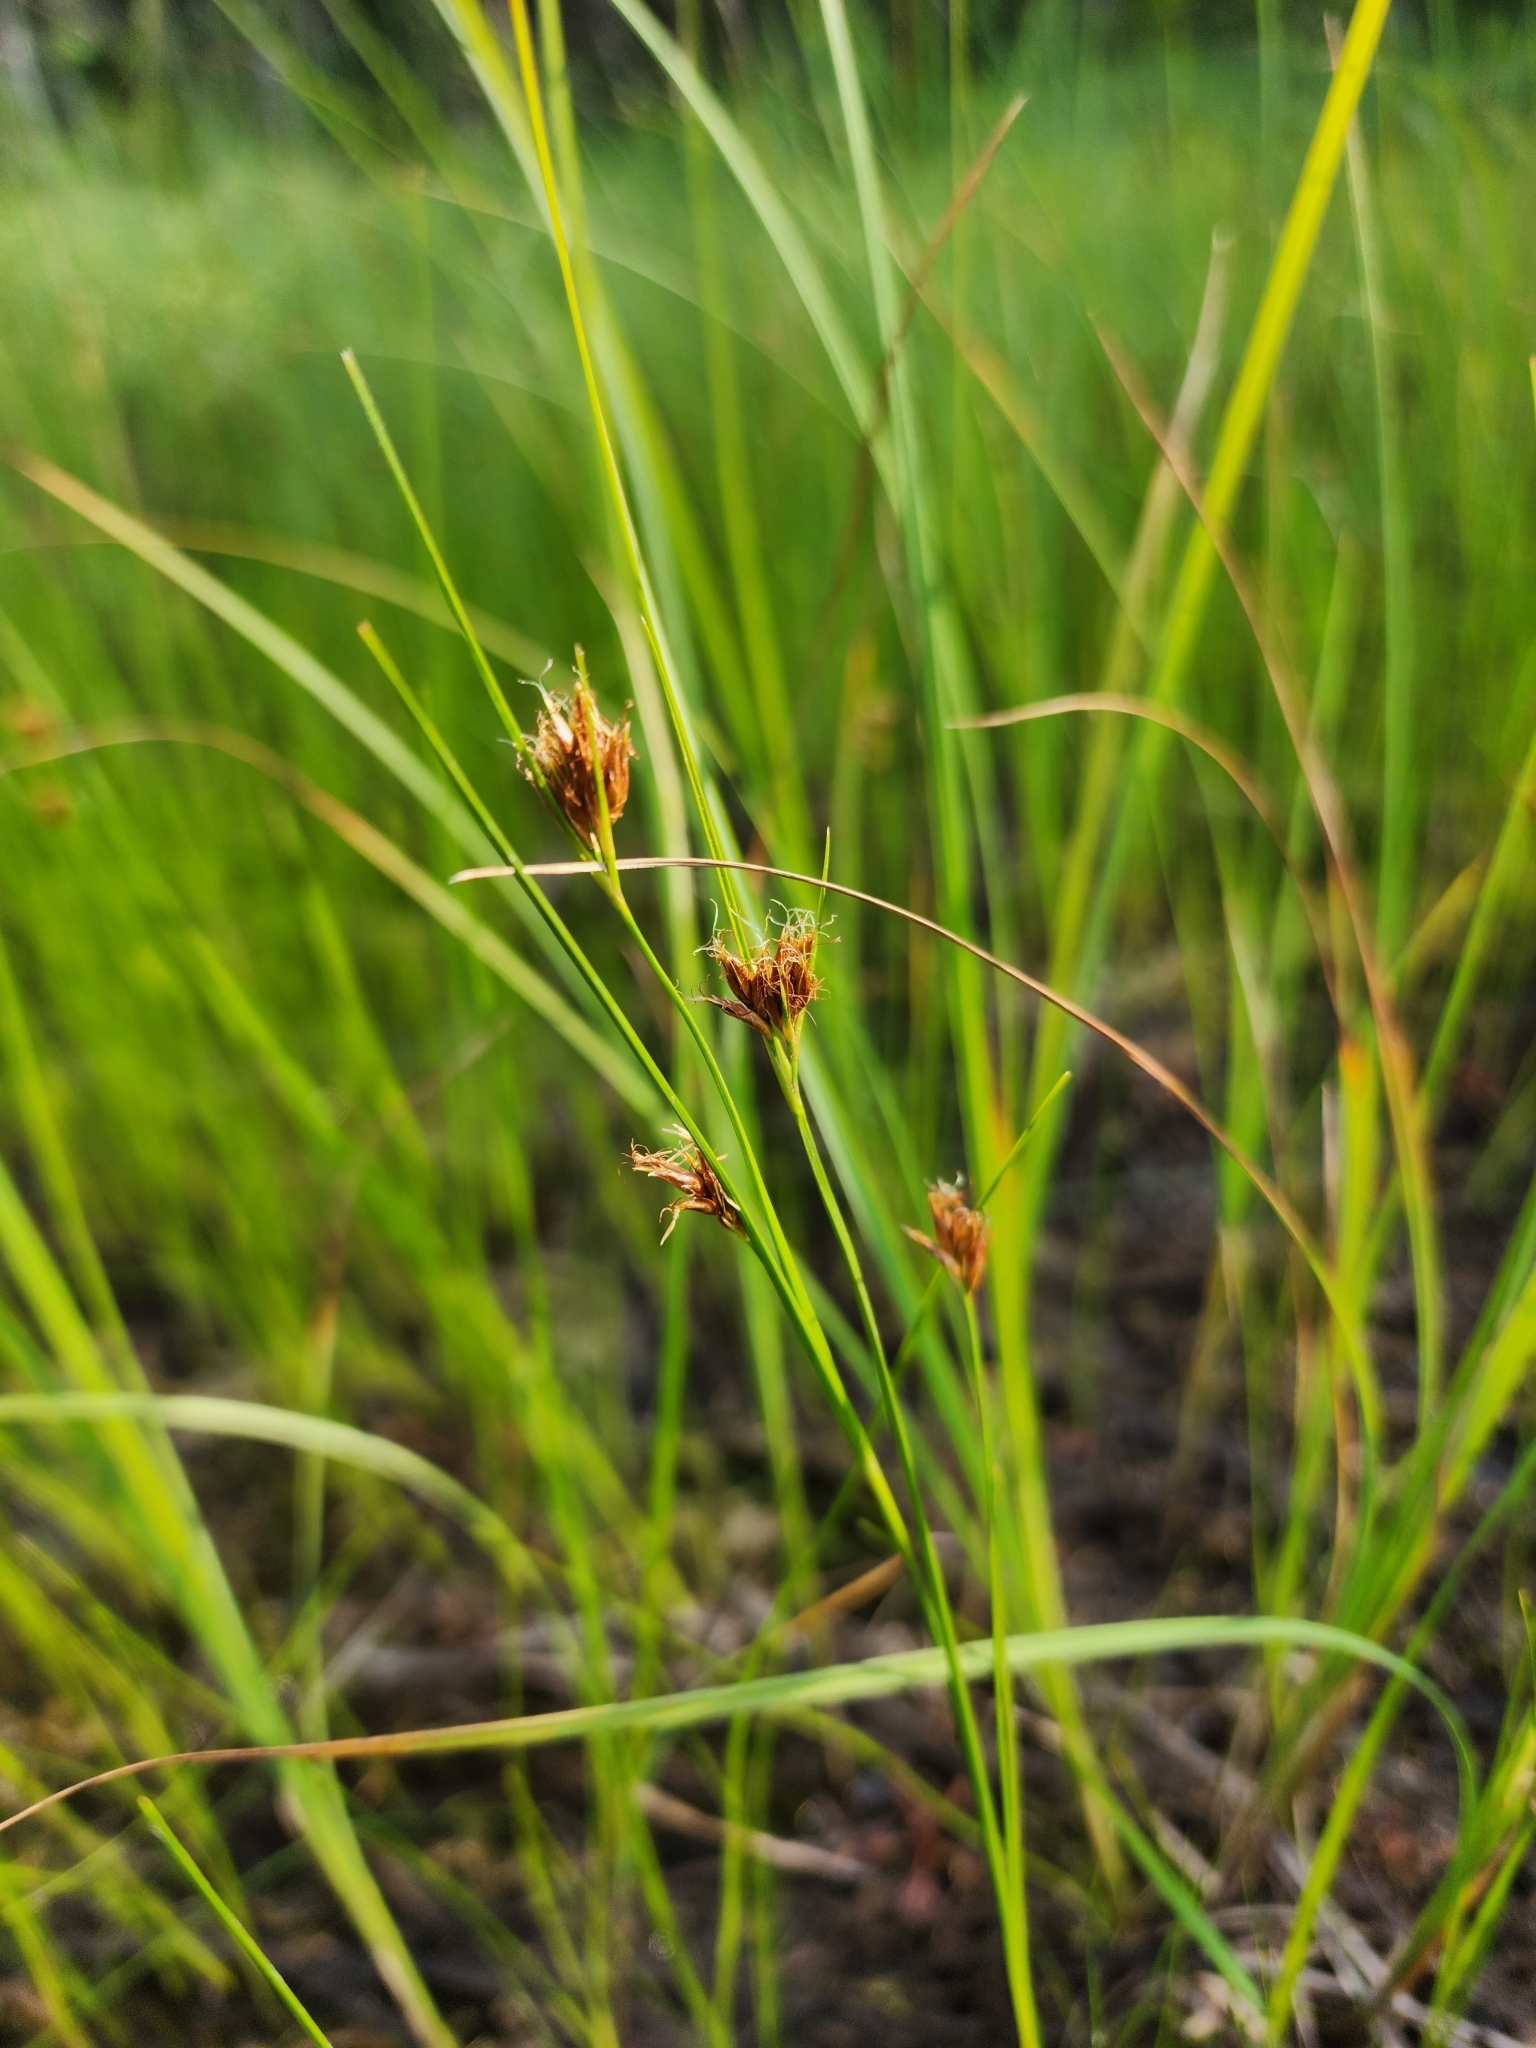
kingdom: Plantae
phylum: Tracheophyta
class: Liliopsida
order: Poales
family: Cyperaceae
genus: Rhynchospora
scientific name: Rhynchospora fusca
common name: Brown beak-sedge
